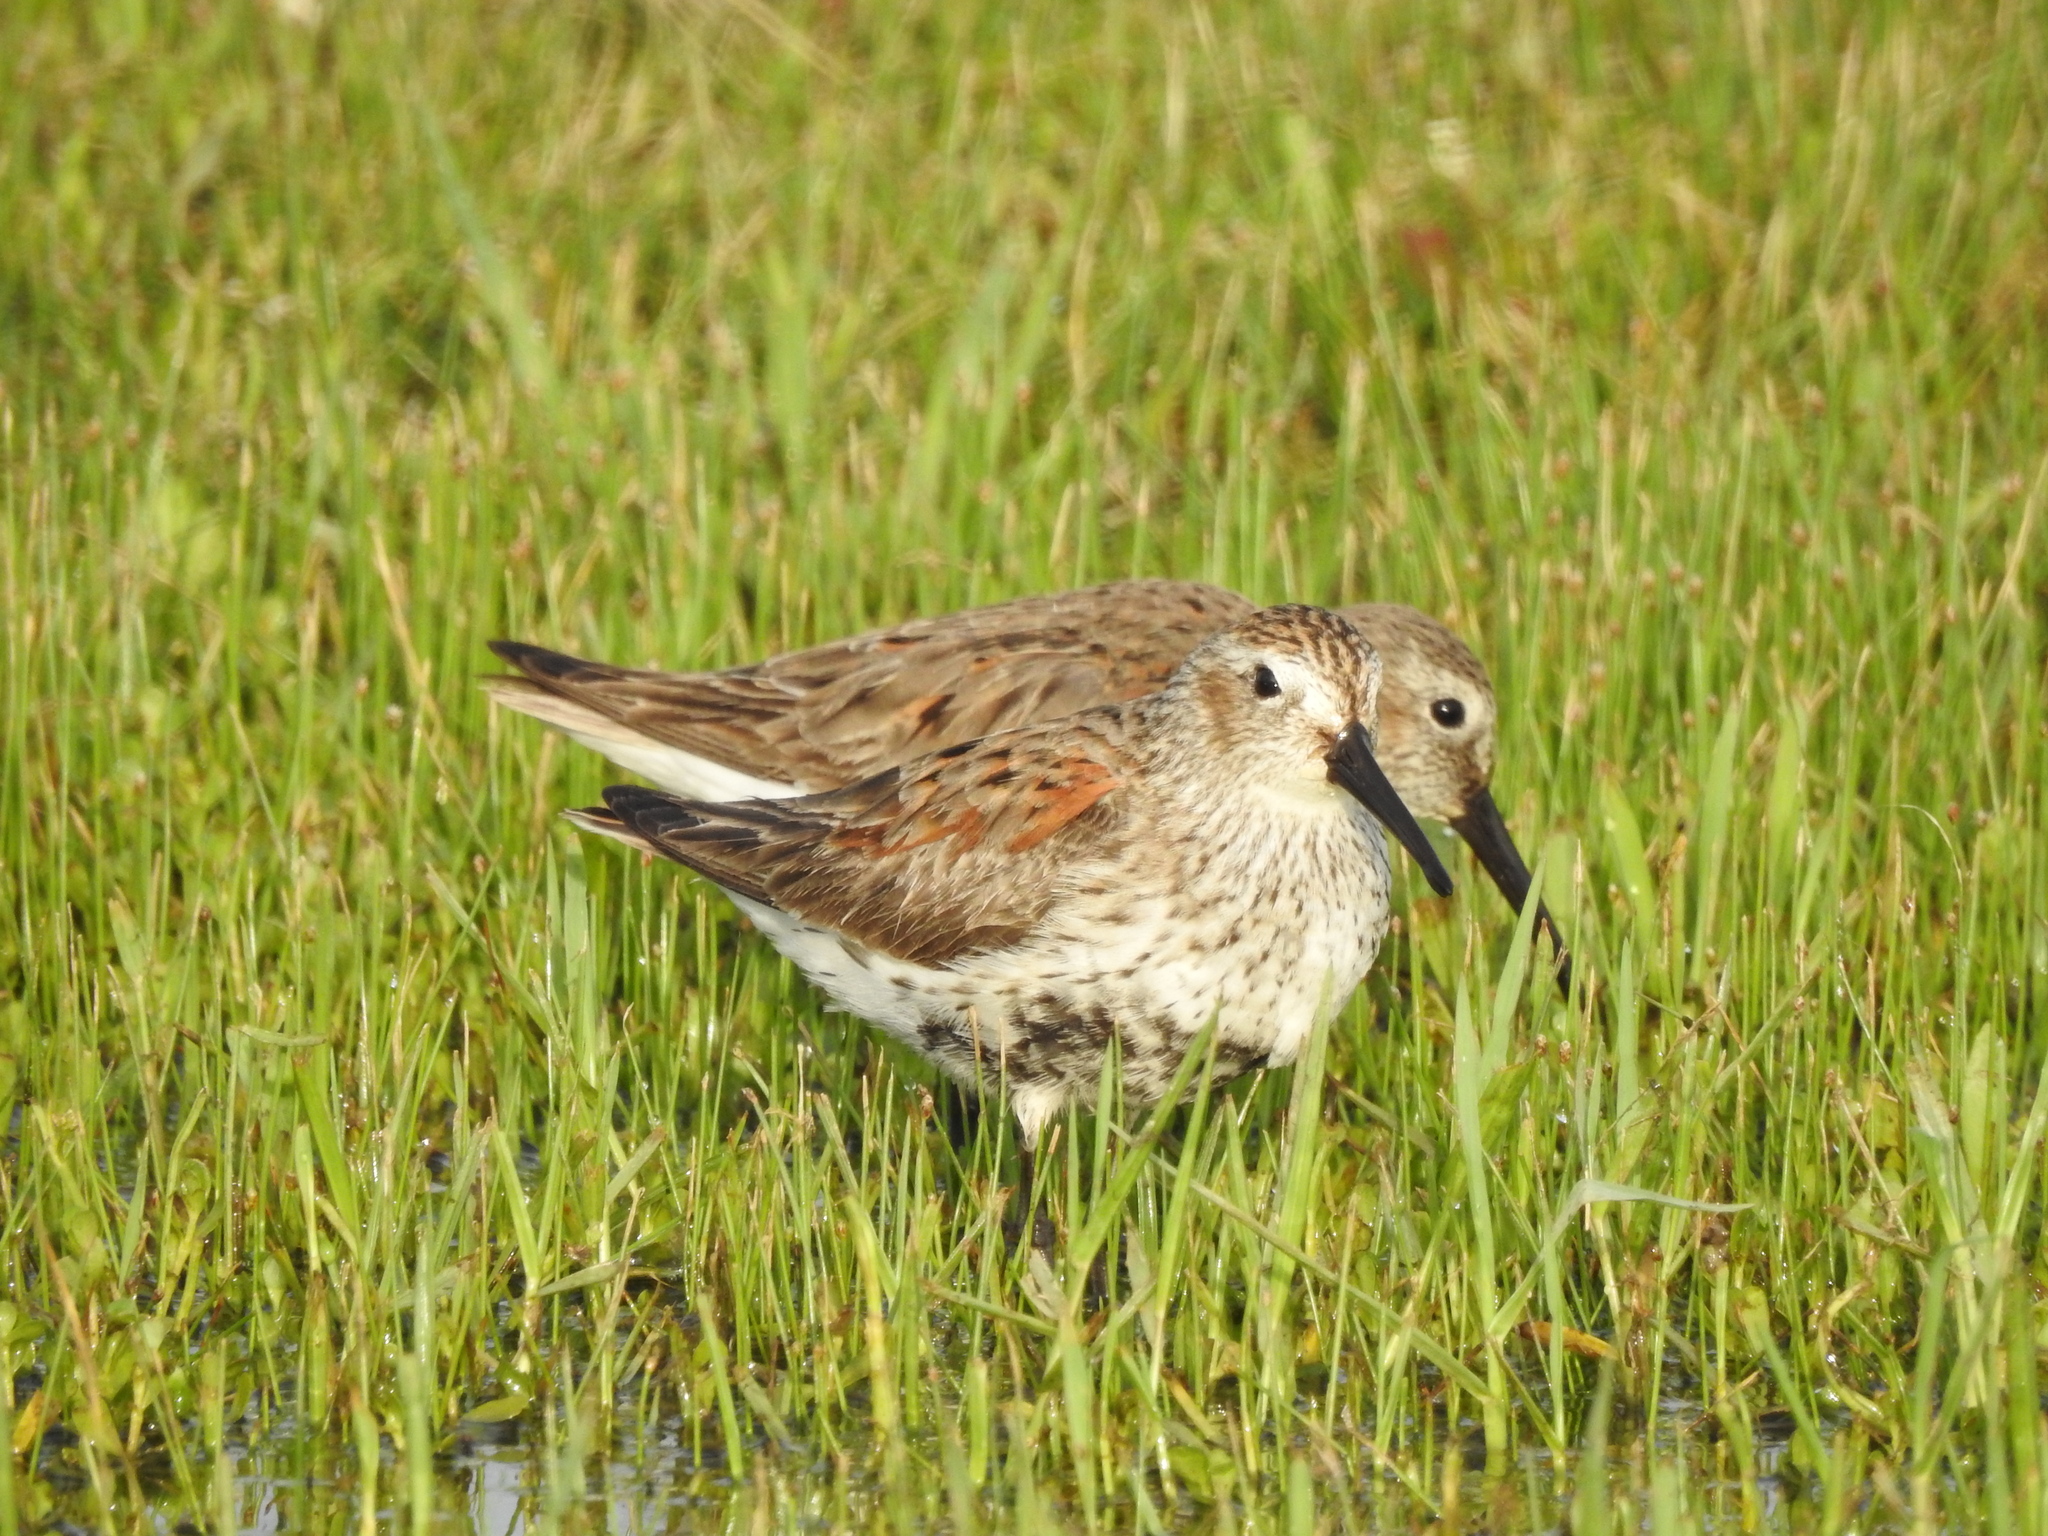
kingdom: Animalia
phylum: Chordata
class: Aves
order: Charadriiformes
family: Scolopacidae
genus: Calidris
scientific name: Calidris alpina
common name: Dunlin
